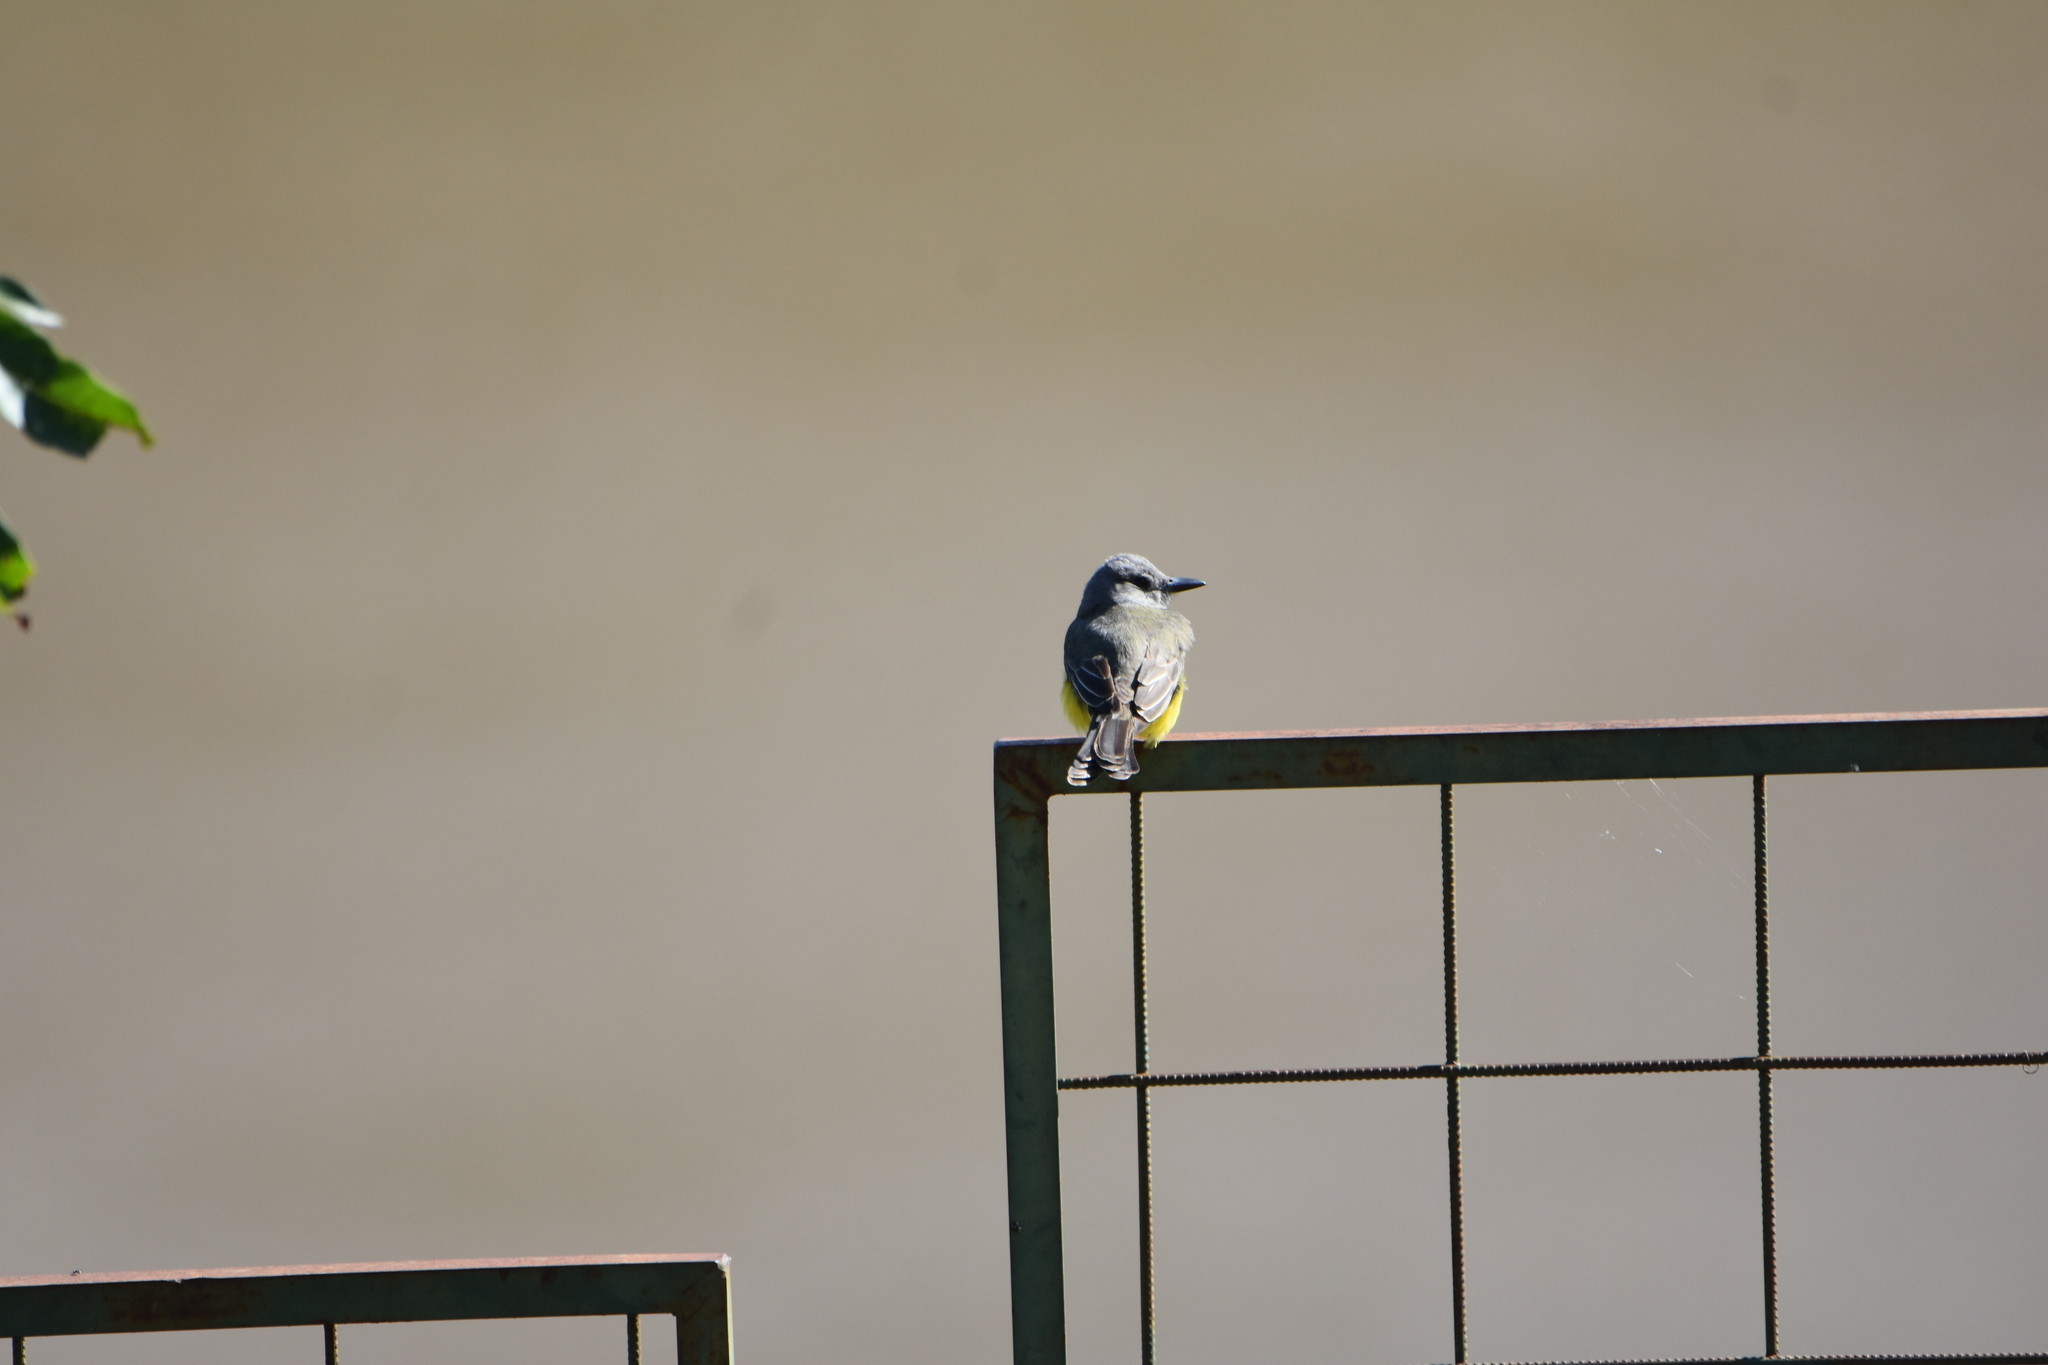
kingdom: Animalia
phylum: Chordata
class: Aves
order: Passeriformes
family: Tyrannidae
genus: Tyrannus
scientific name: Tyrannus melancholicus
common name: Tropical kingbird
